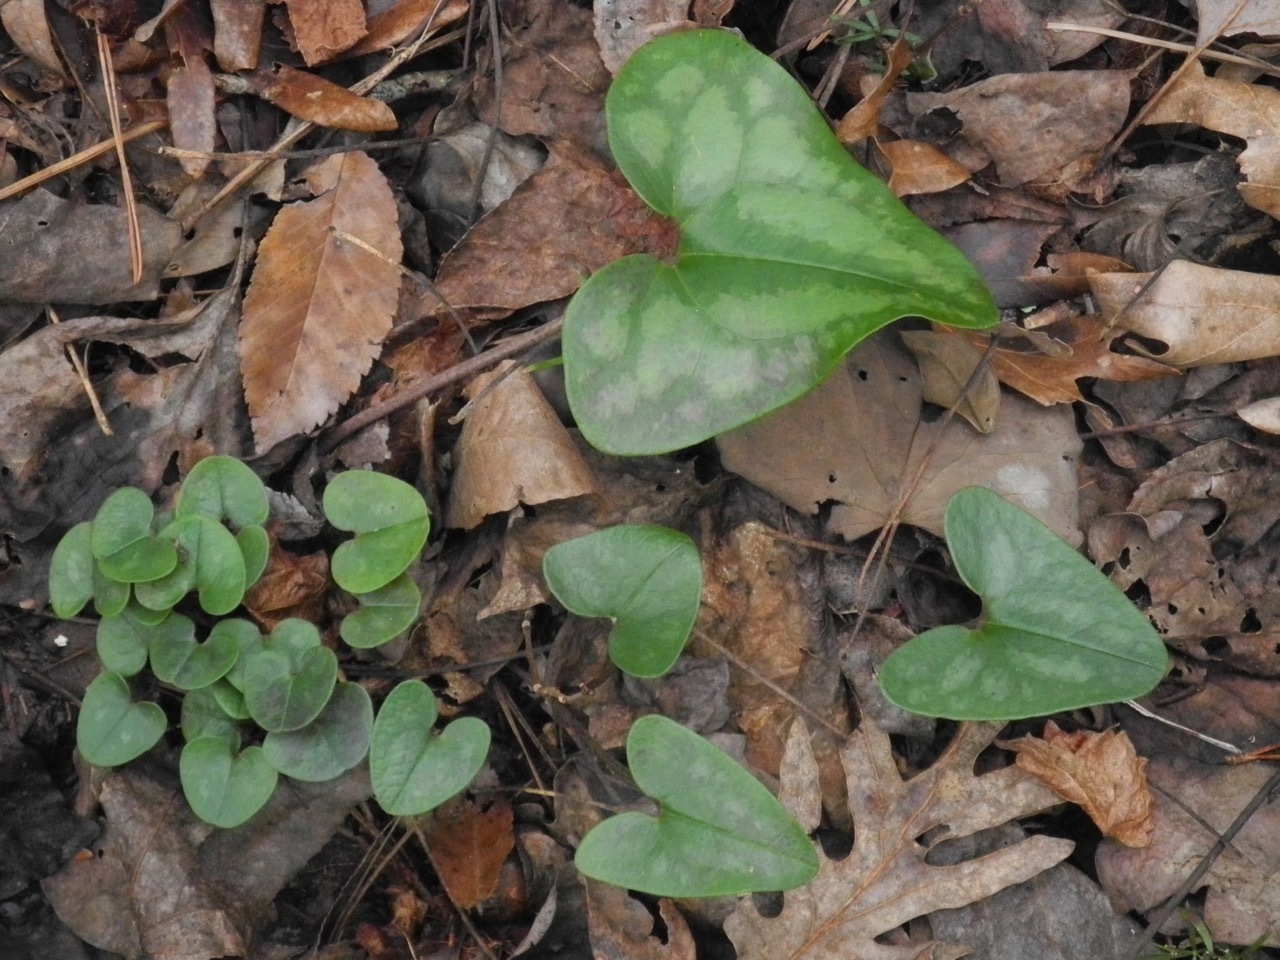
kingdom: Plantae
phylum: Tracheophyta
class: Magnoliopsida
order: Piperales
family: Aristolochiaceae
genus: Hexastylis
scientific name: Hexastylis arifolia
